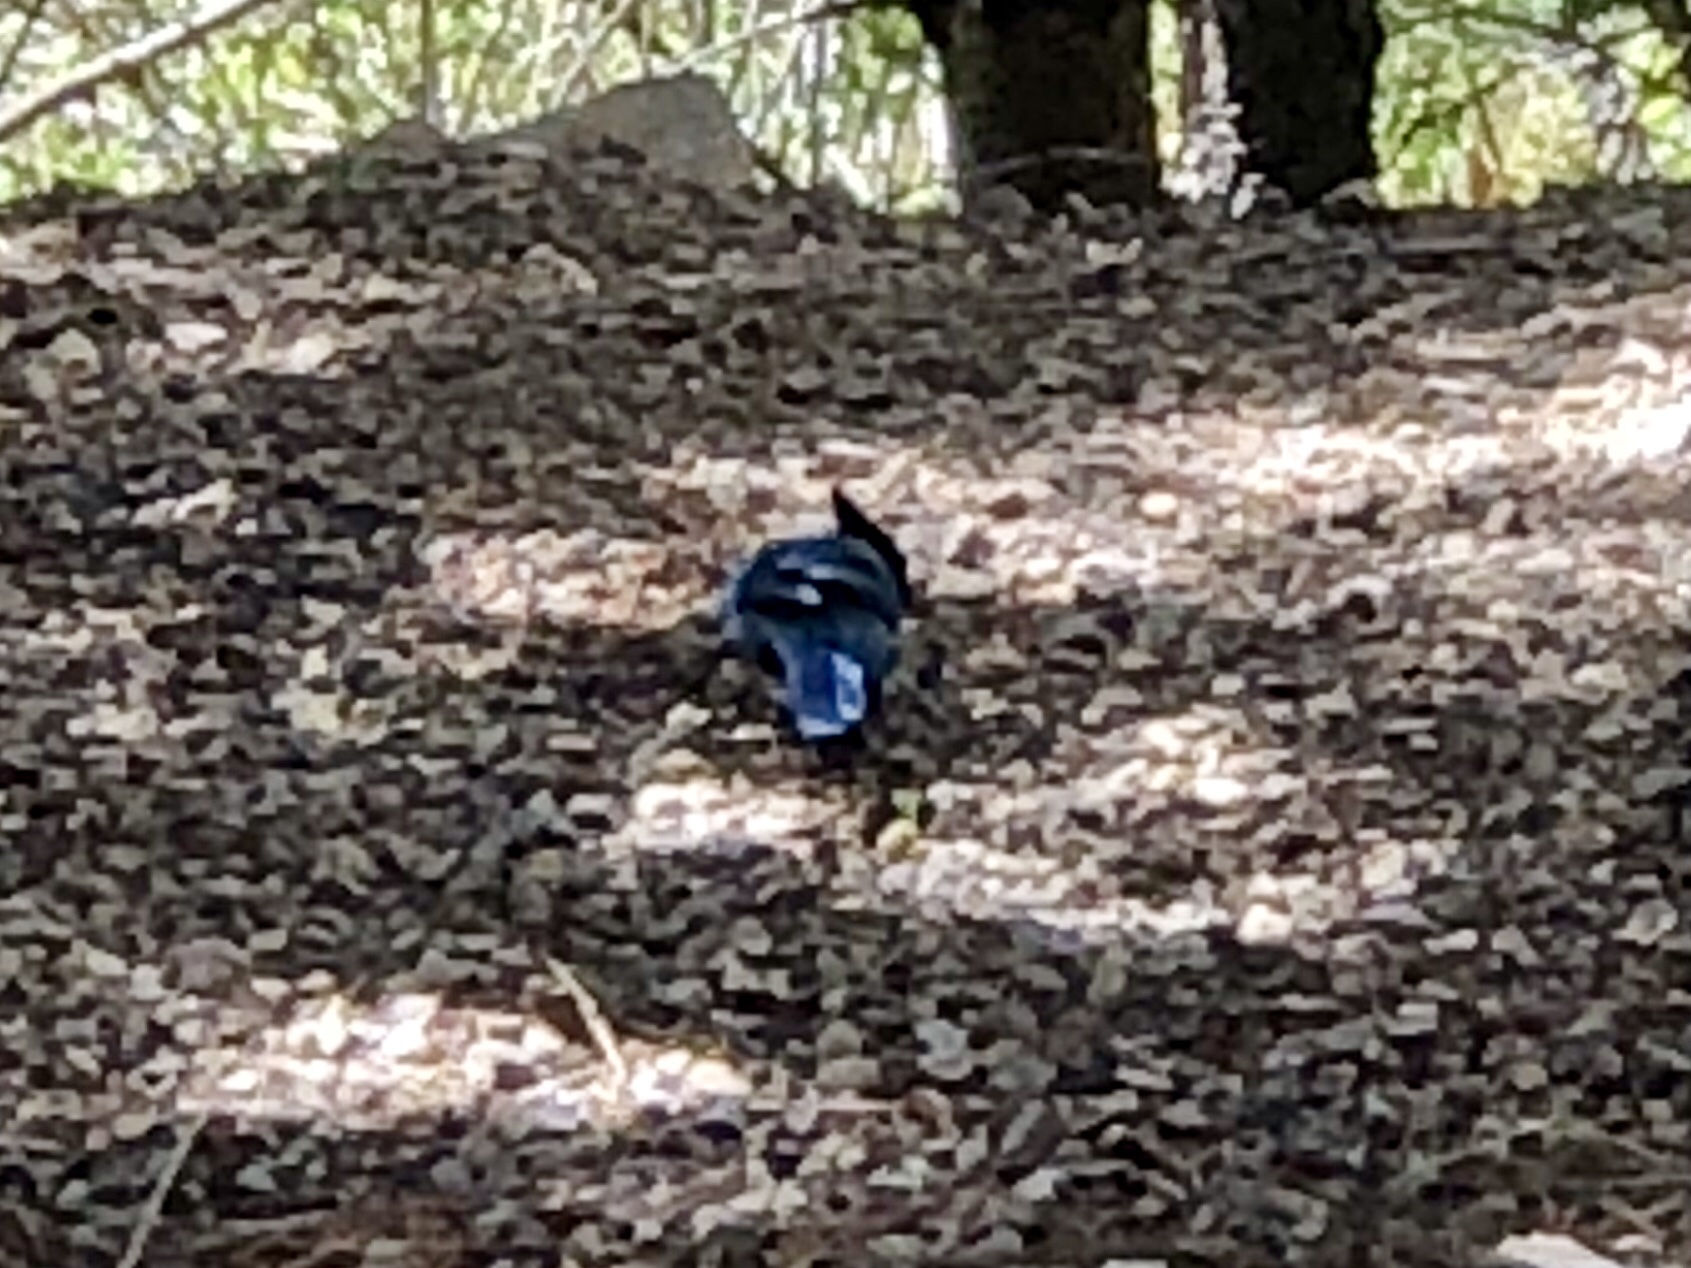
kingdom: Animalia
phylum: Chordata
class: Aves
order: Passeriformes
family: Corvidae
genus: Cyanocitta
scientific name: Cyanocitta stelleri
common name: Steller's jay
